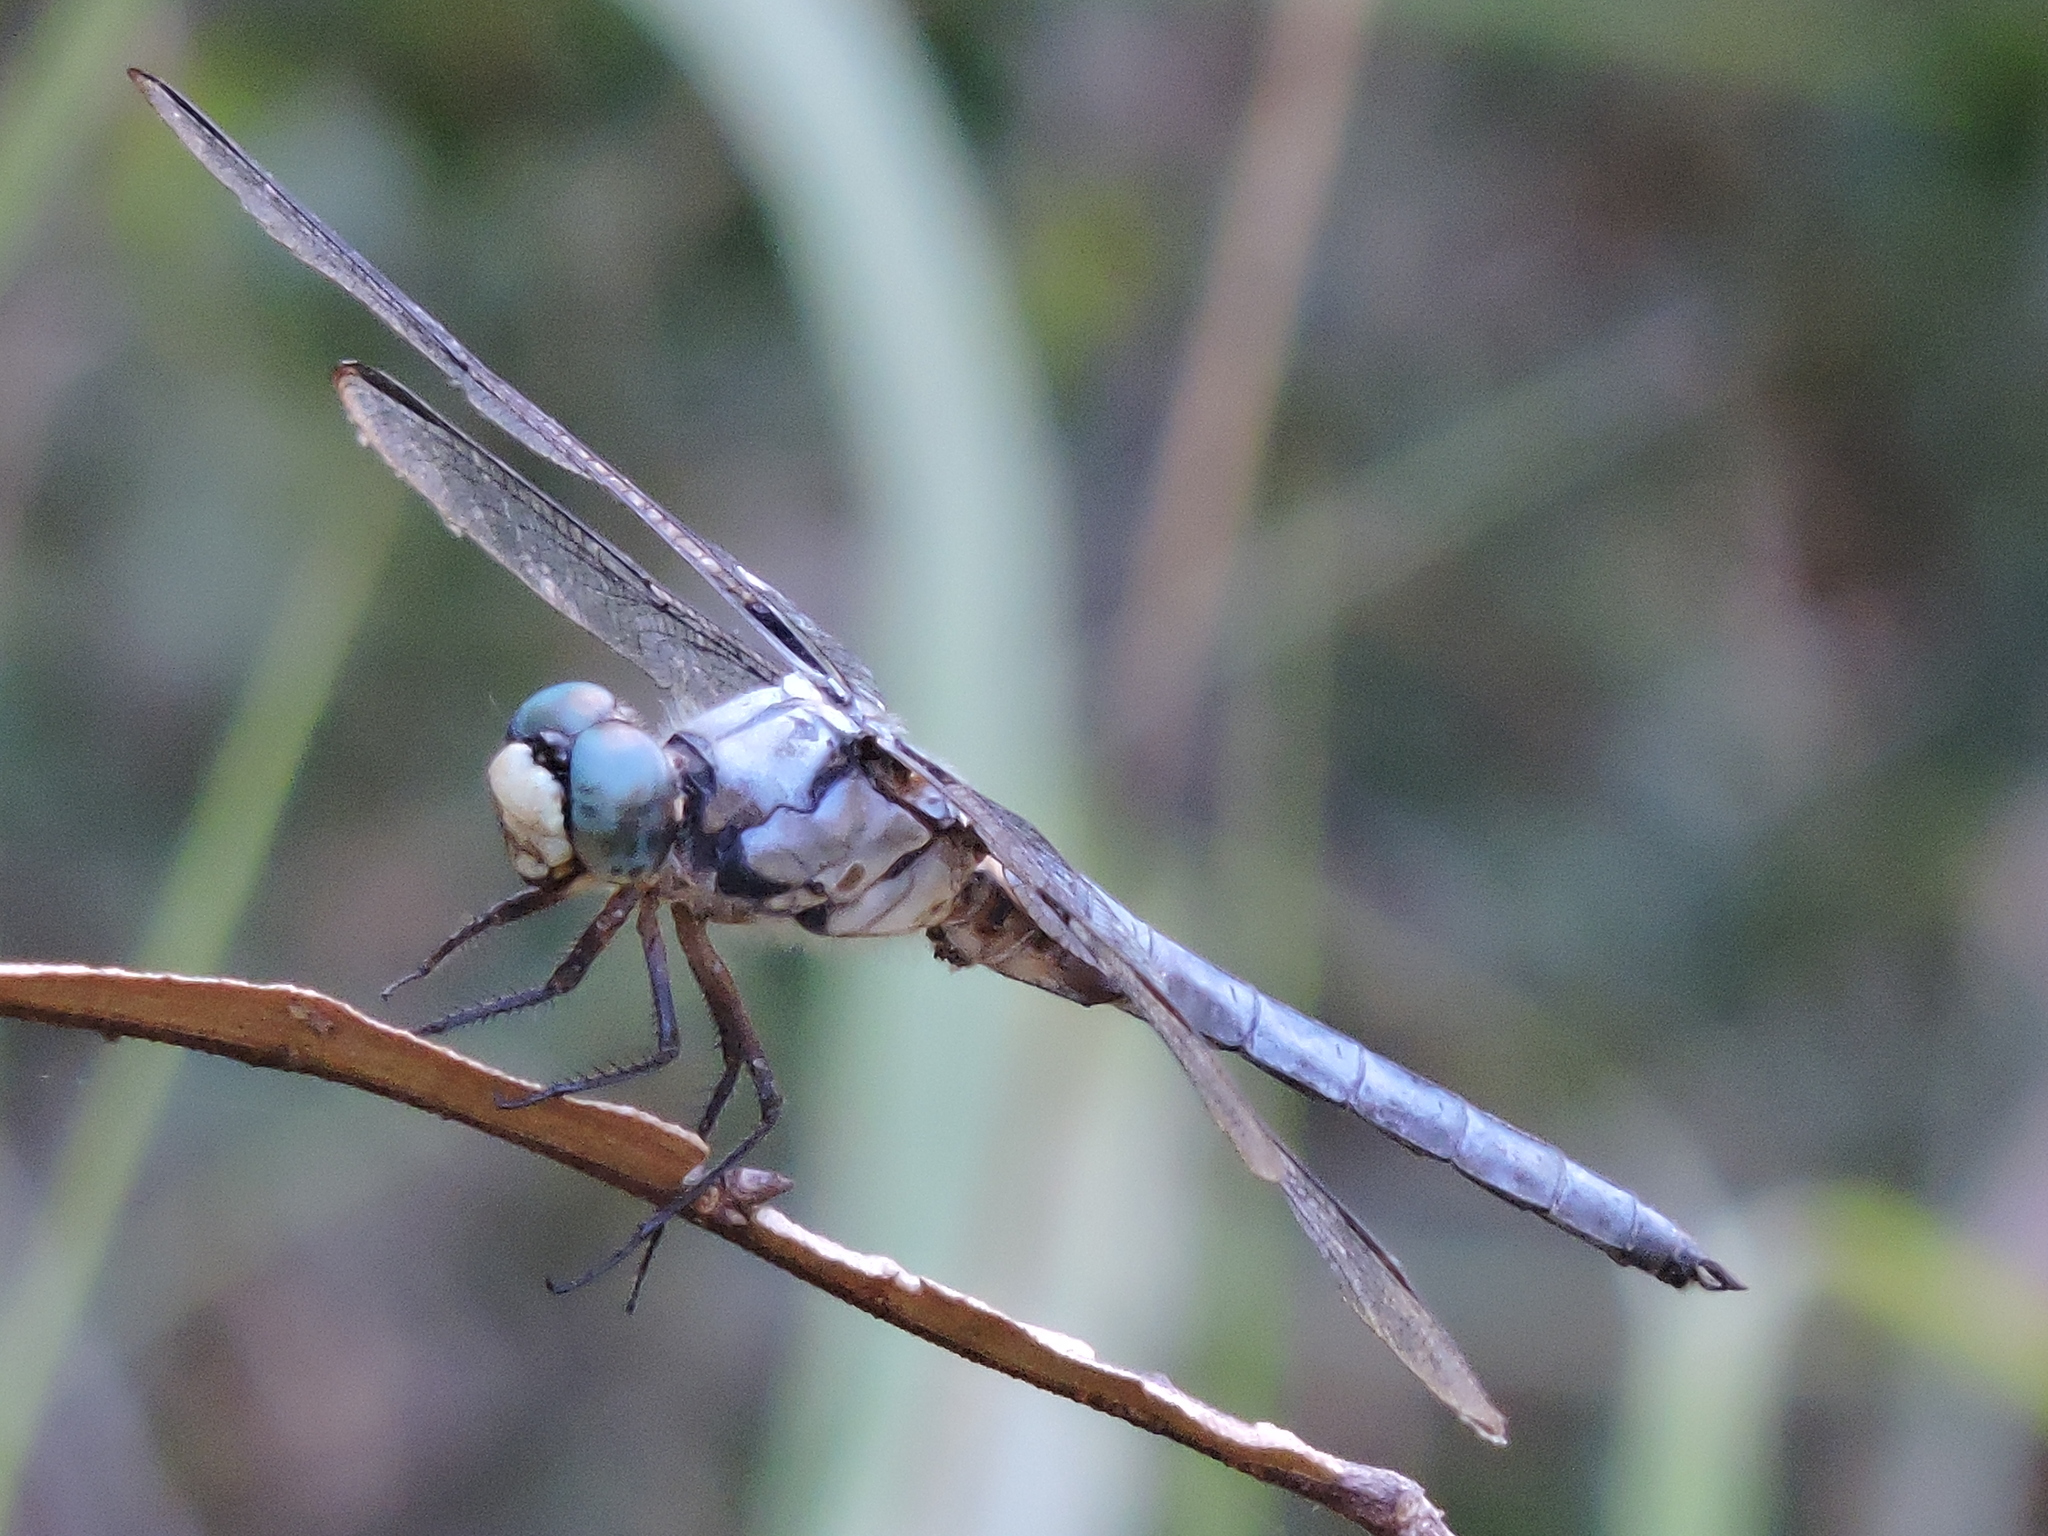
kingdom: Animalia
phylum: Arthropoda
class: Insecta
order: Odonata
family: Libellulidae
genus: Libellula
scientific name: Libellula vibrans
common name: Great blue skimmer
